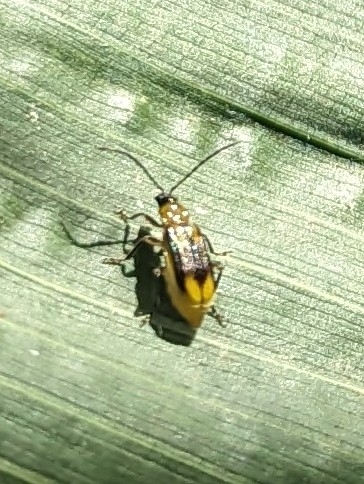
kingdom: Animalia
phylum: Arthropoda
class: Insecta
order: Coleoptera
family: Chrysomelidae
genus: Diabrotica
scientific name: Diabrotica virgifera
